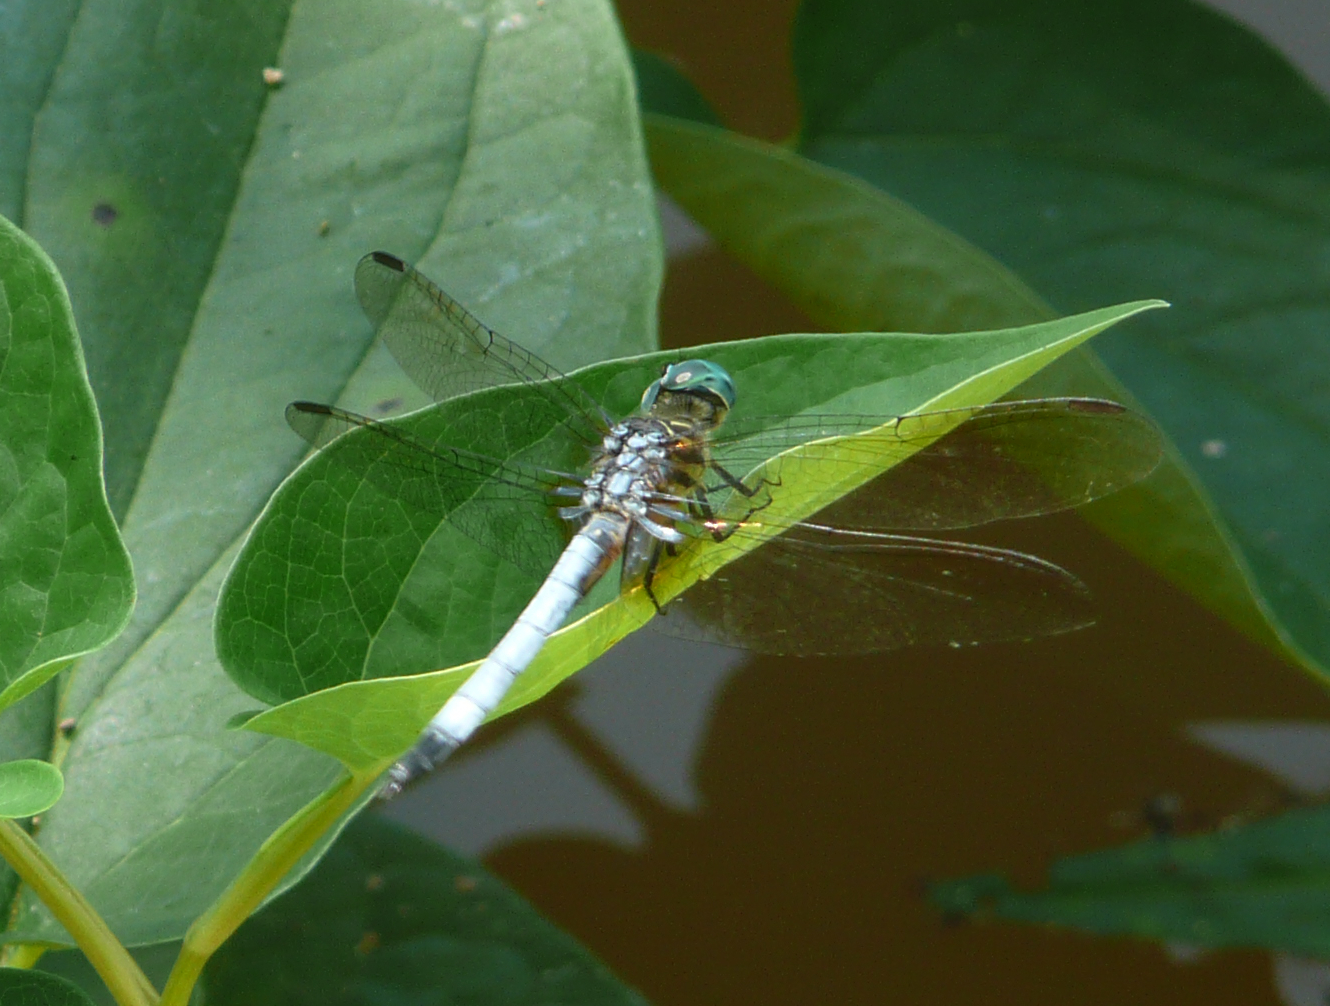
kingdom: Animalia
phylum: Arthropoda
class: Insecta
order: Odonata
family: Libellulidae
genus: Pachydiplax
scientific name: Pachydiplax longipennis
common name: Blue dasher
